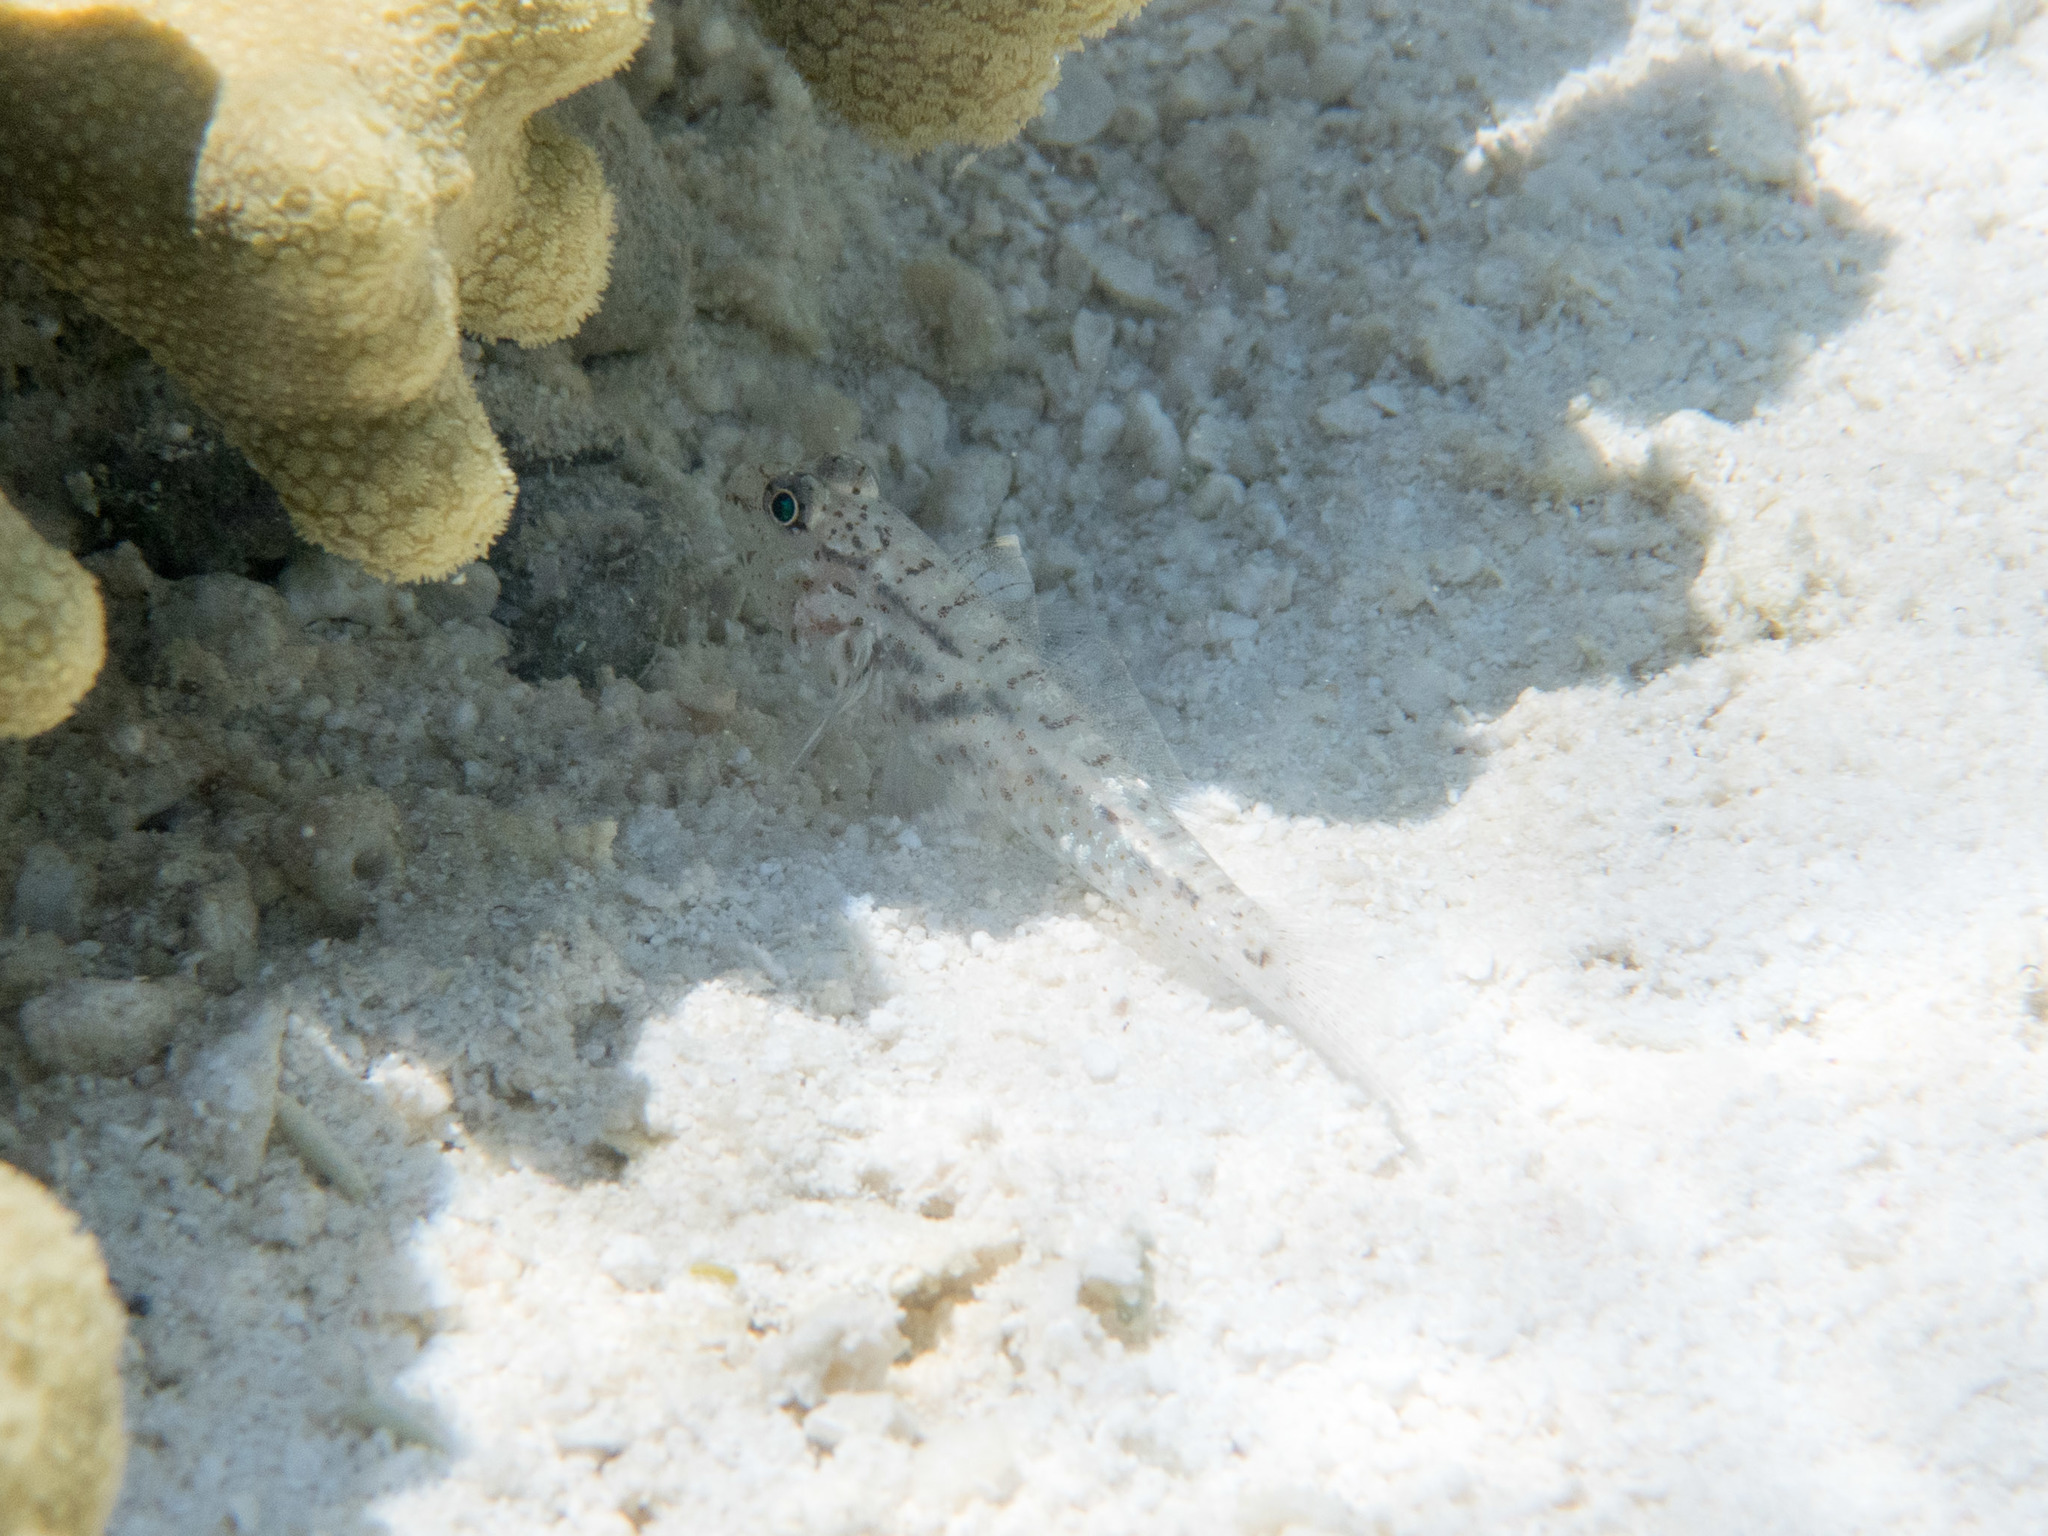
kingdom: Animalia
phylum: Chordata
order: Perciformes
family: Gobiidae
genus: Fusigobius
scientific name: Fusigobius neophytus
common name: Sand goby
